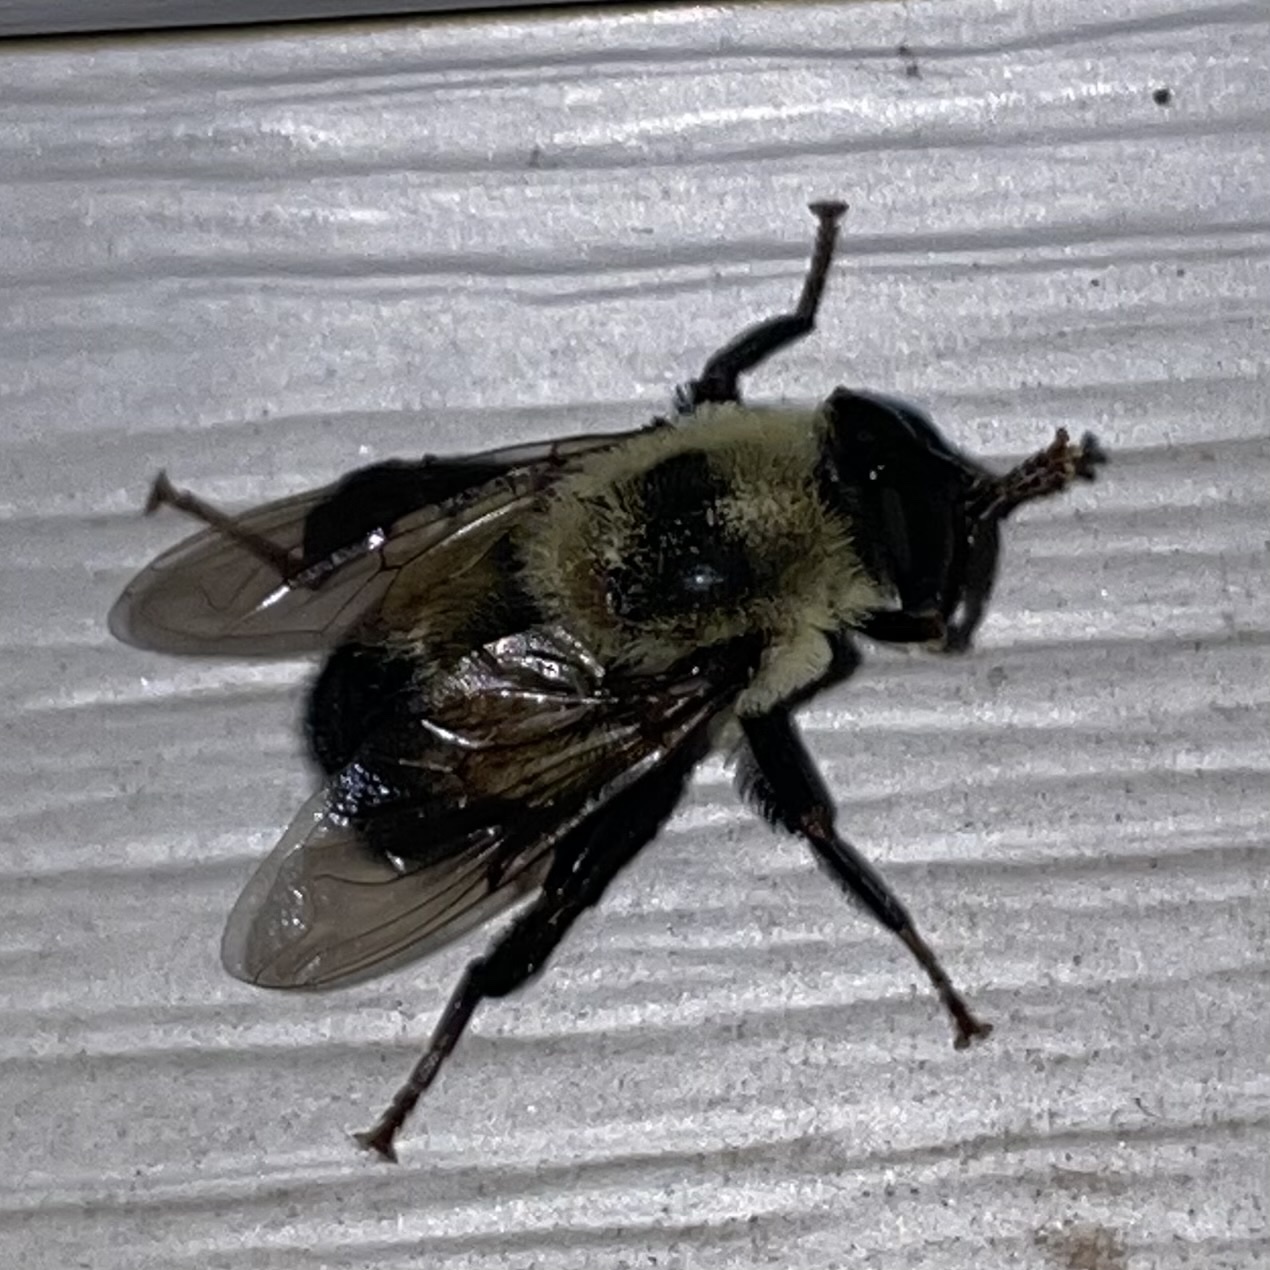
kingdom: Animalia
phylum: Arthropoda
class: Insecta
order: Diptera
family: Syrphidae
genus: Imatisma
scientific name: Imatisma posticata
